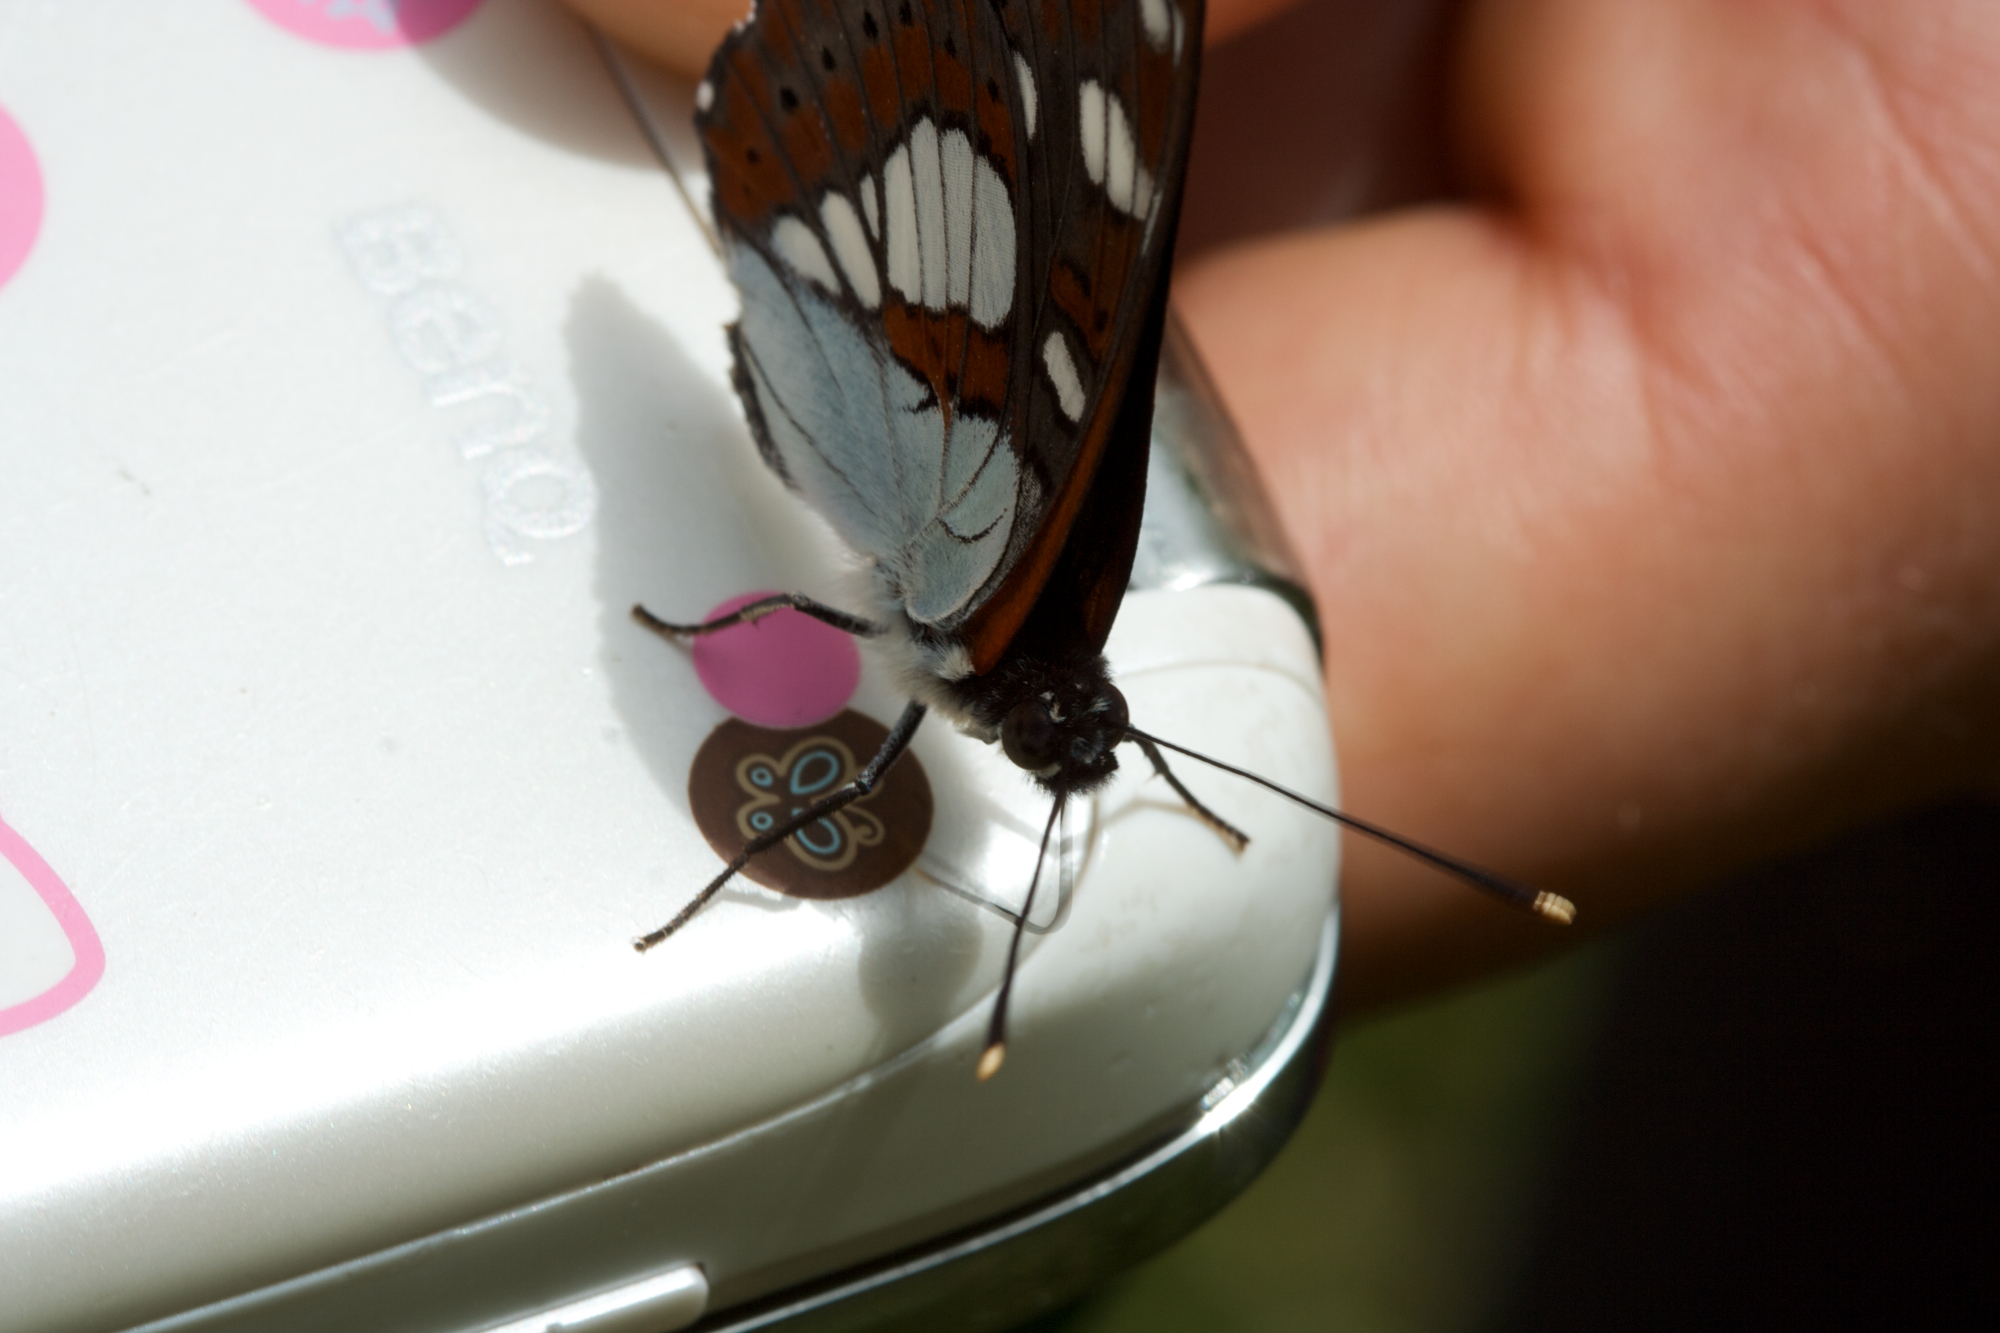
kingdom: Animalia
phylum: Arthropoda
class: Insecta
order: Lepidoptera
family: Nymphalidae
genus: Limenitis
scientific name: Limenitis reducta
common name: Southern white admiral
